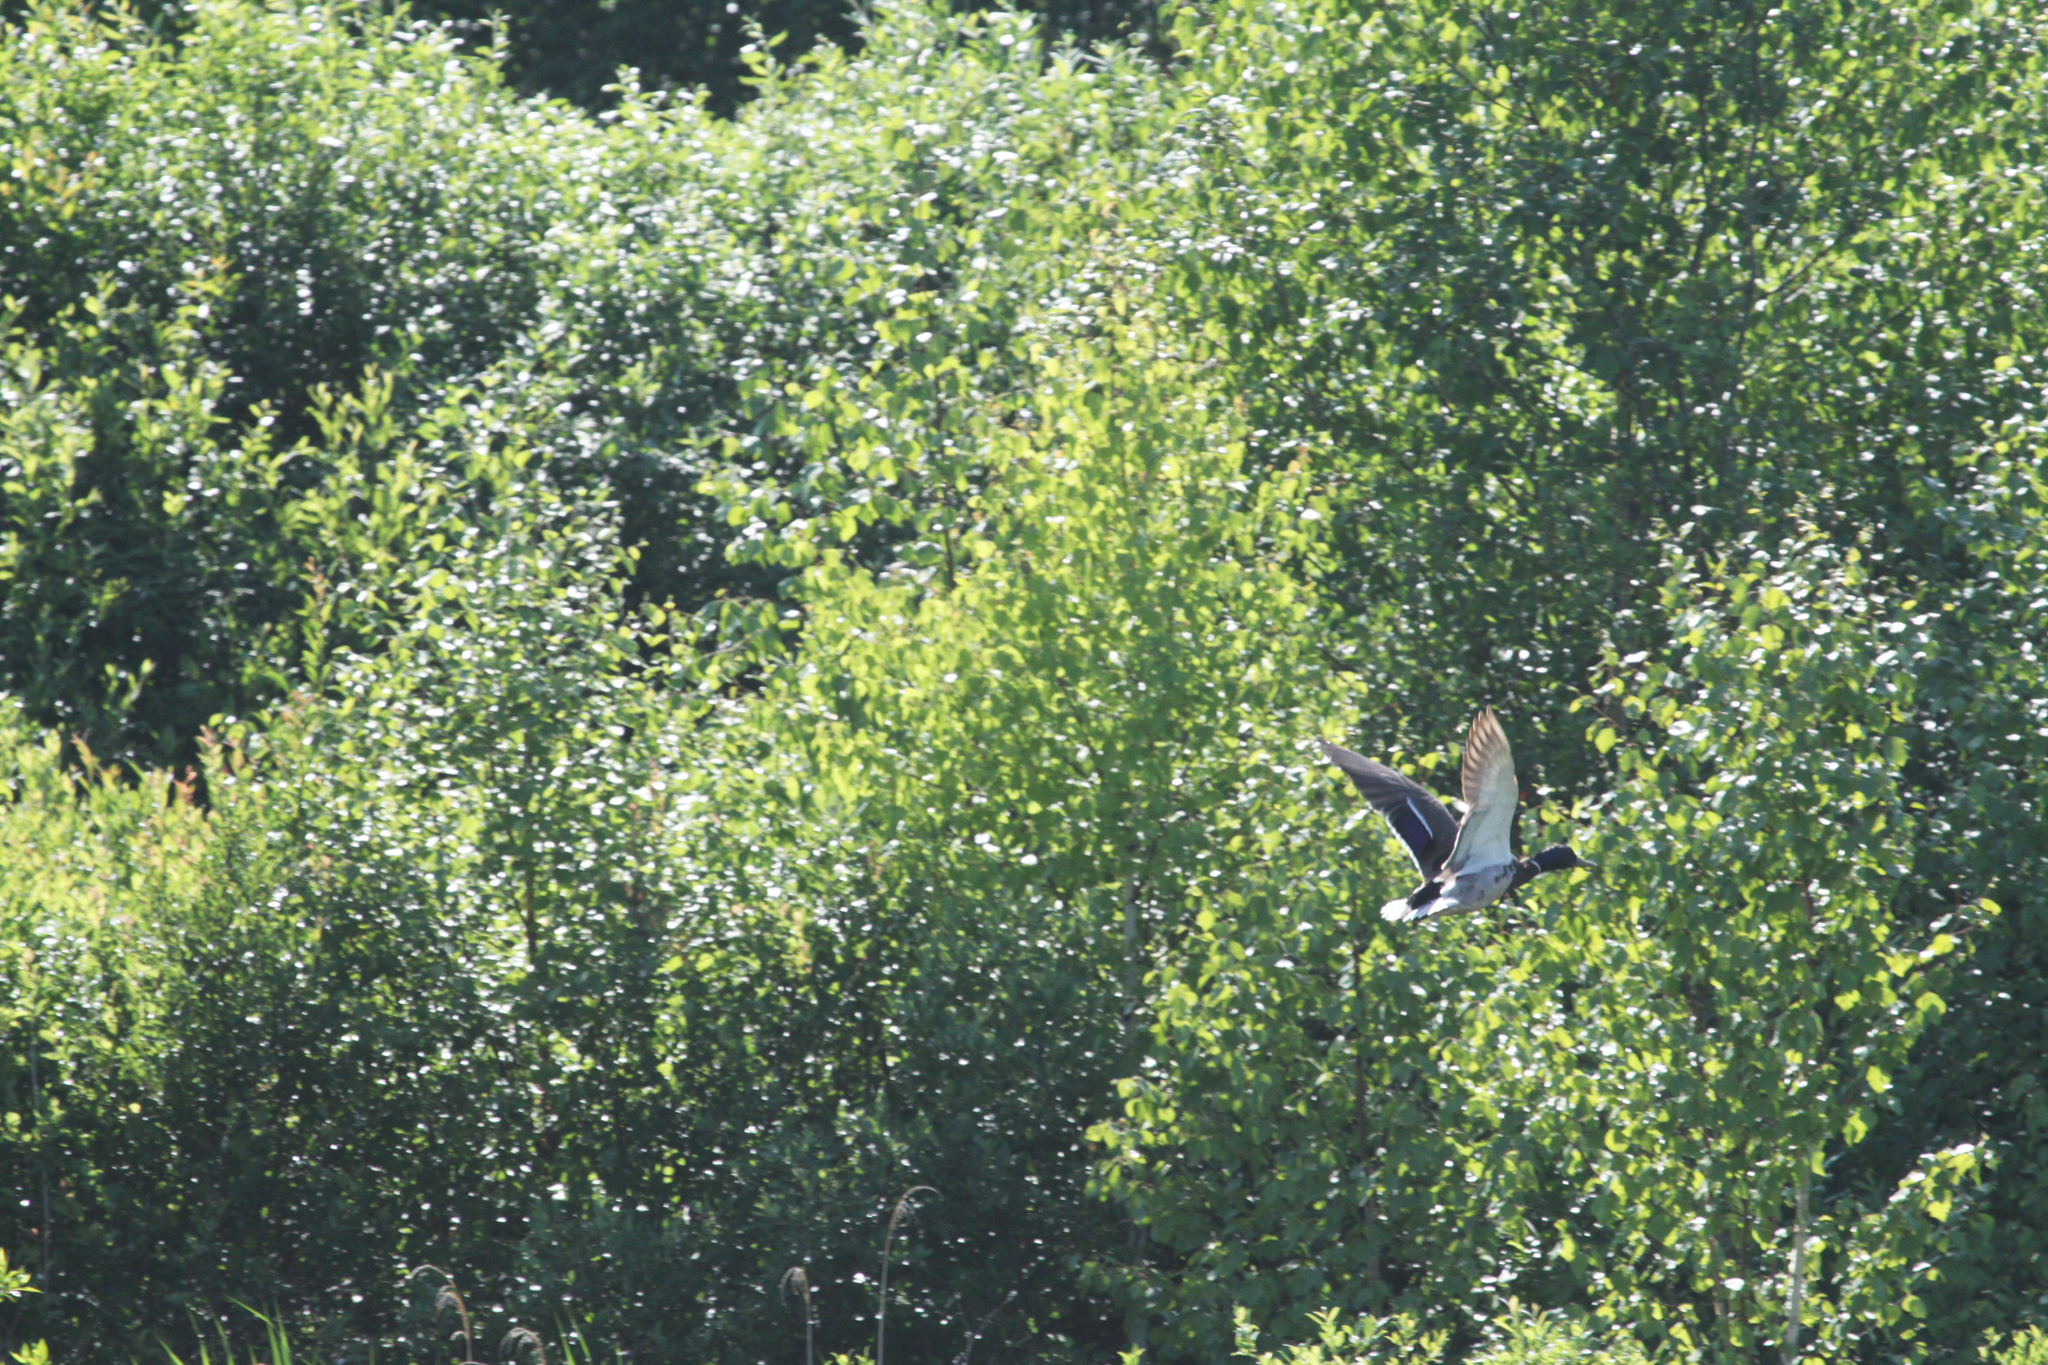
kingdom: Animalia
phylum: Chordata
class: Aves
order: Anseriformes
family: Anatidae
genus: Anas
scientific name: Anas platyrhynchos
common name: Mallard
